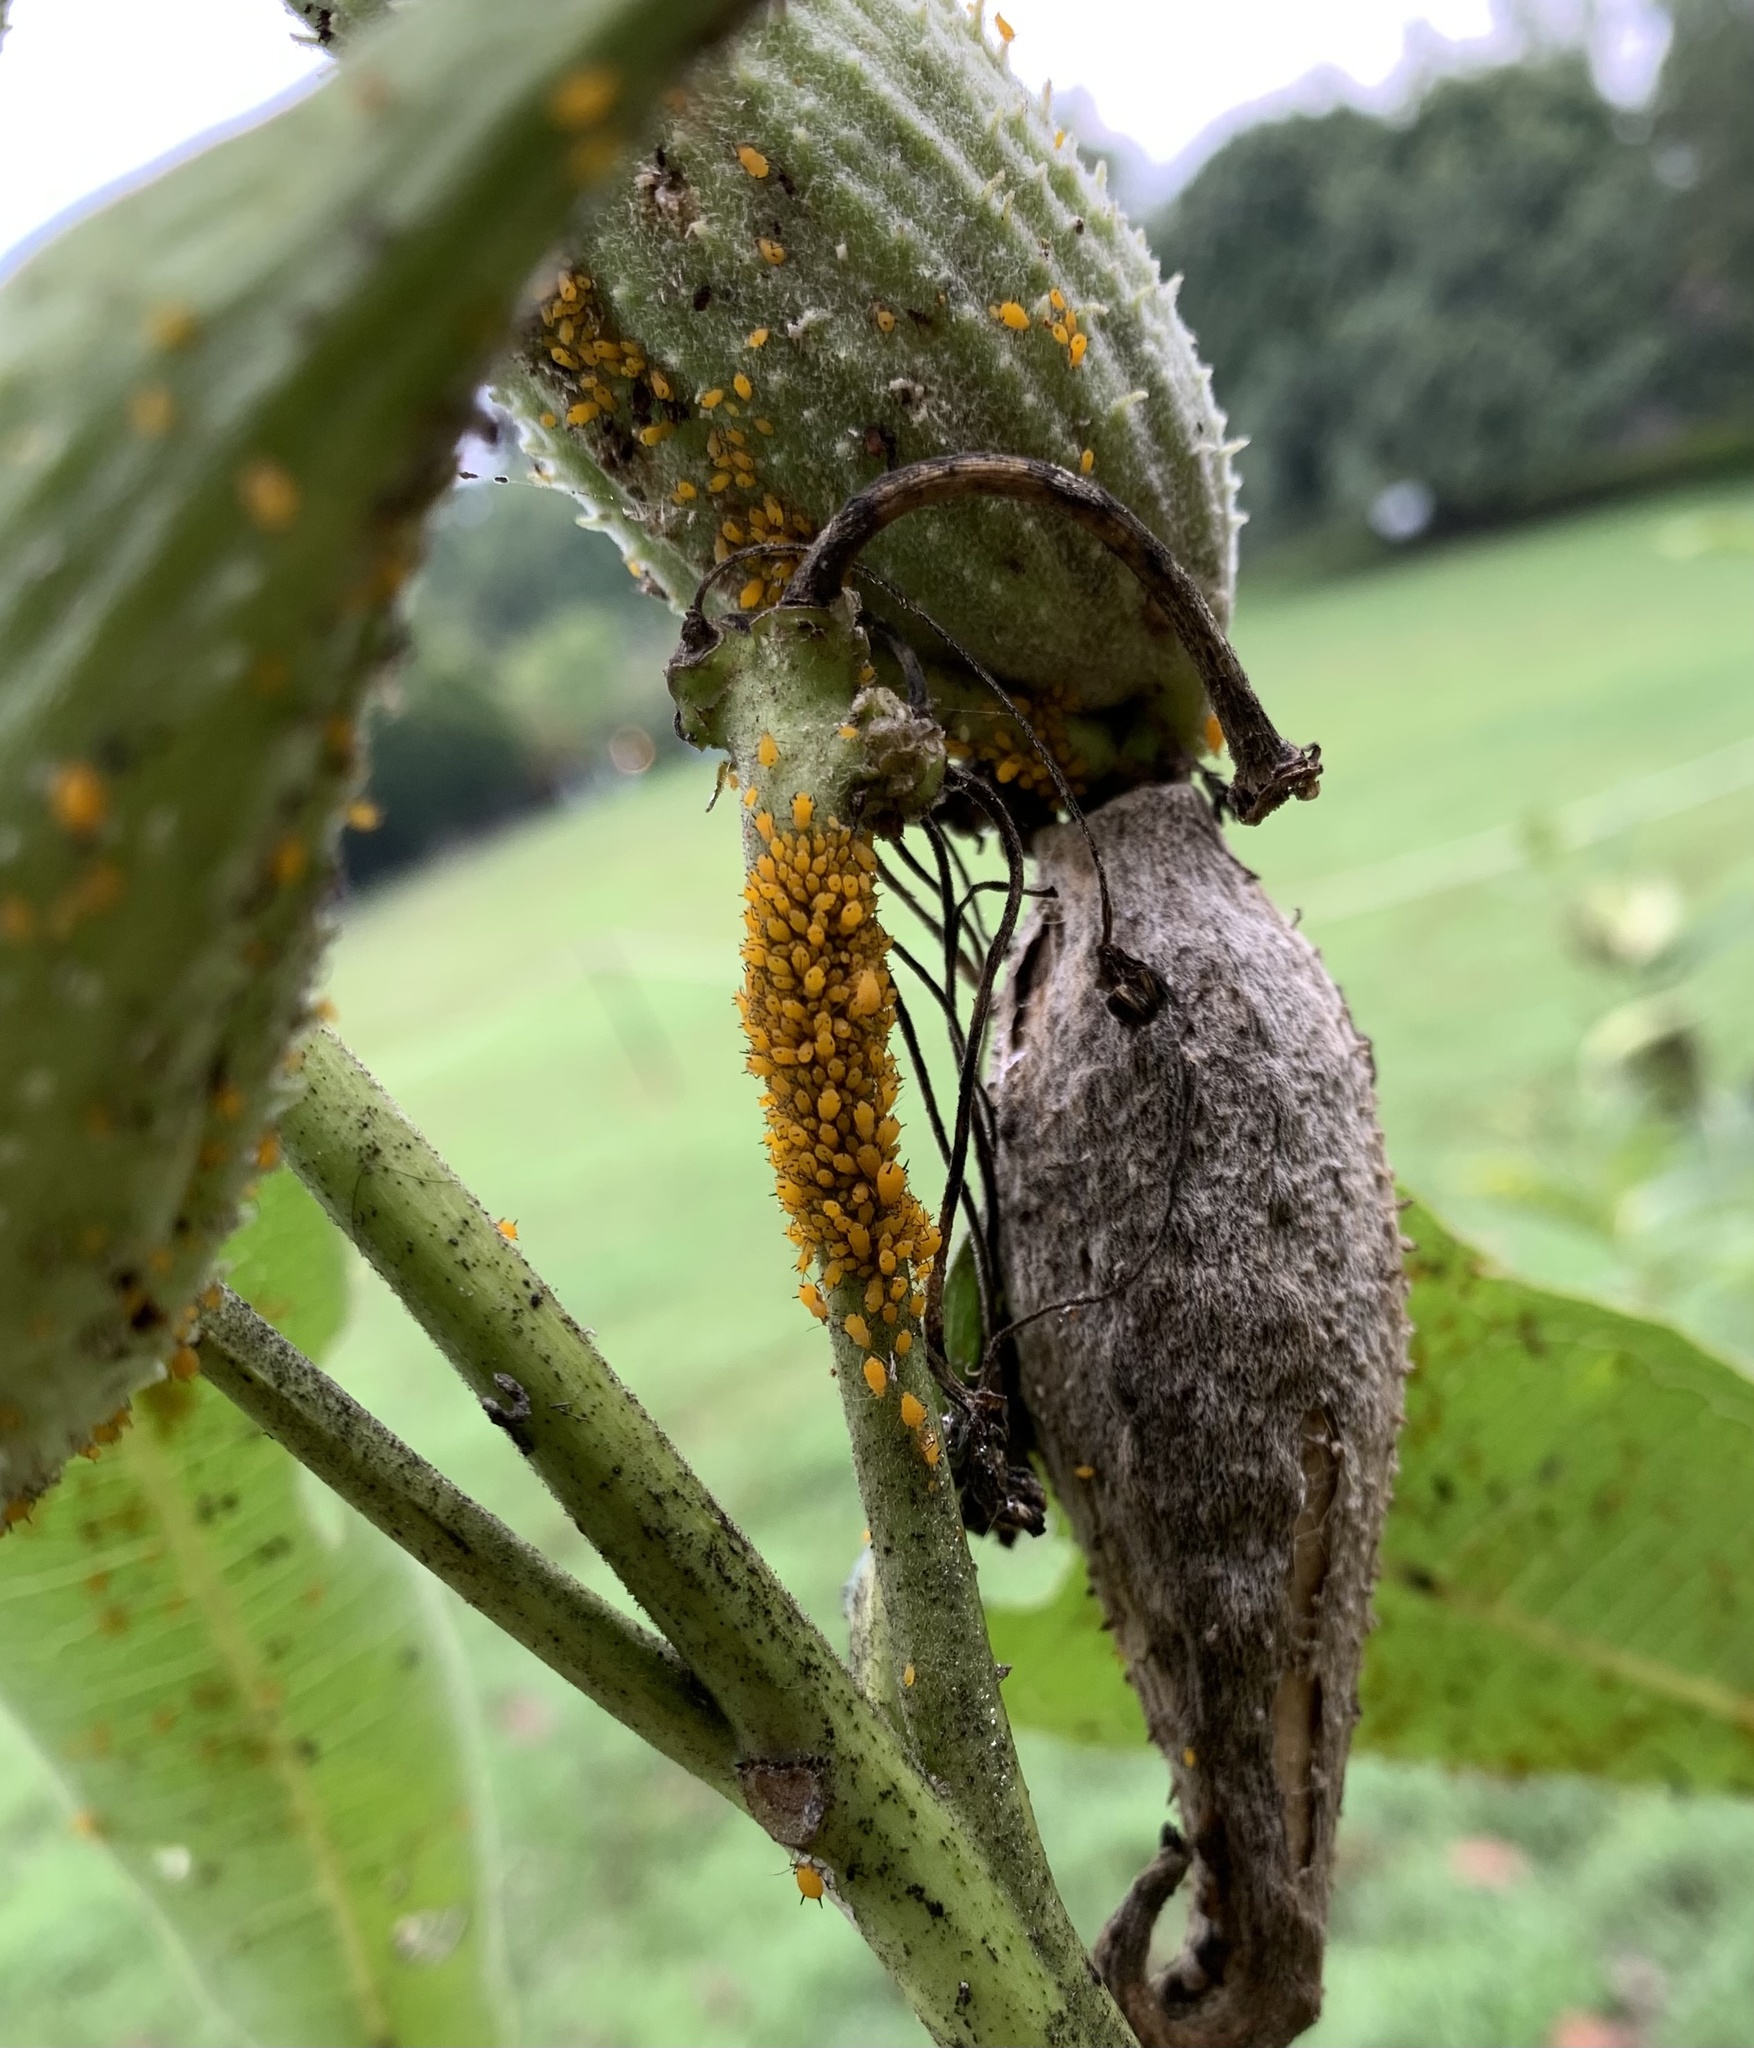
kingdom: Animalia
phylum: Arthropoda
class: Insecta
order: Hemiptera
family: Aphididae
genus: Aphis
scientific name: Aphis nerii
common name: Oleander aphid
